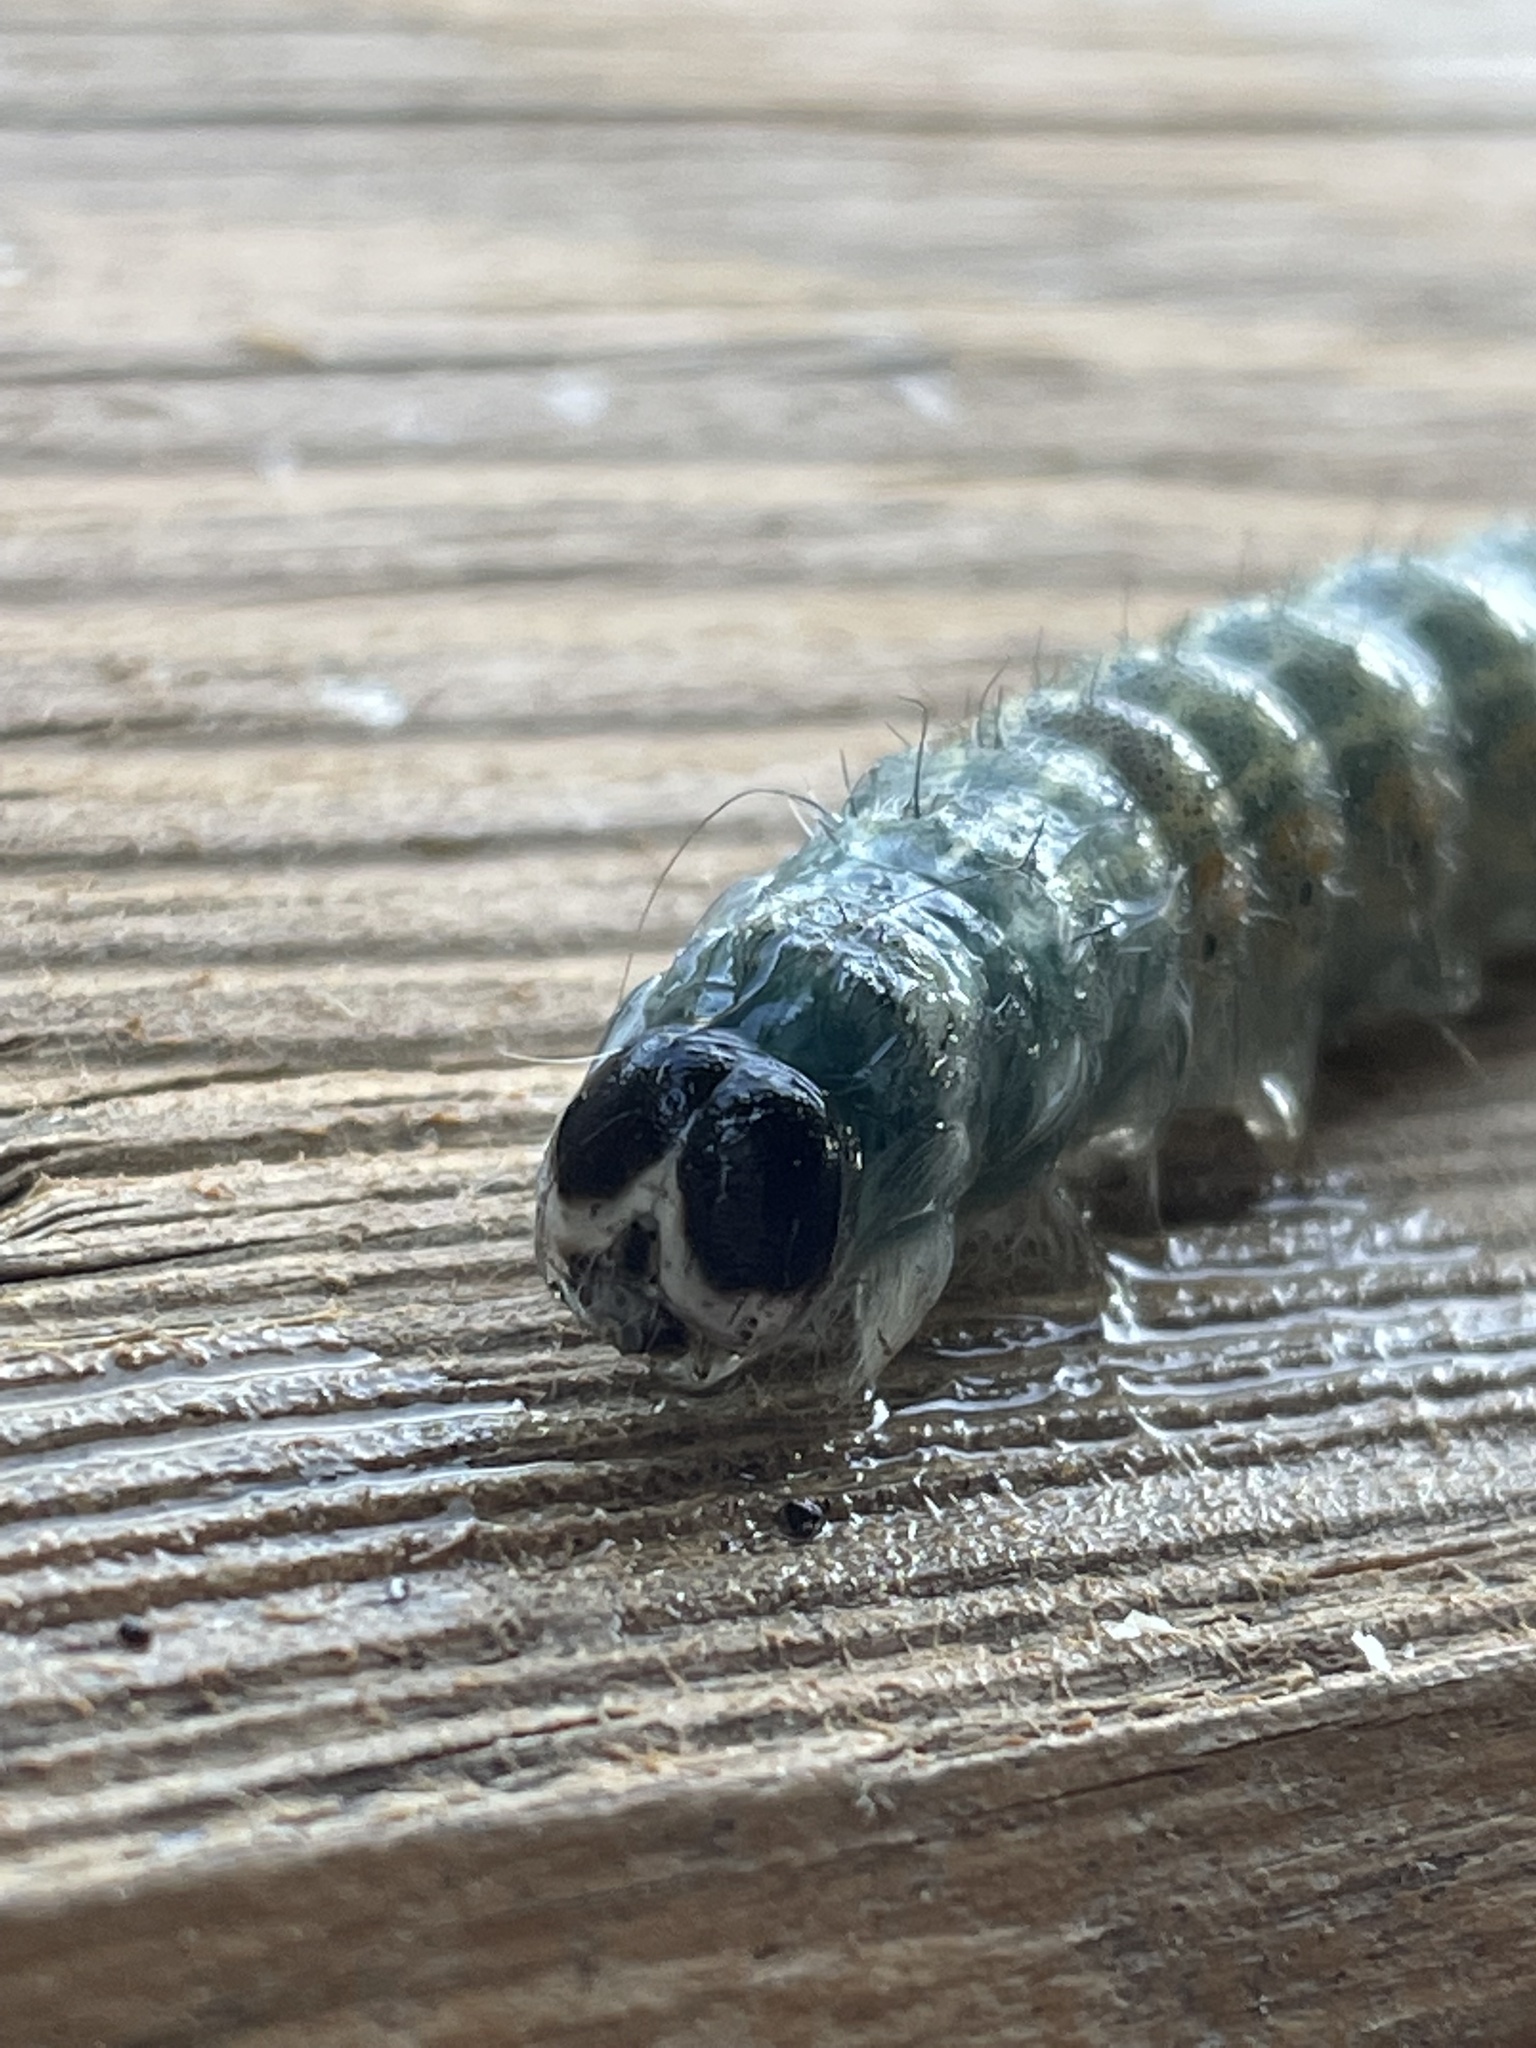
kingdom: Animalia
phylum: Arthropoda
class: Insecta
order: Lepidoptera
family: Noctuidae
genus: Acronicta
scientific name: Acronicta lobeliae
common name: Greater oak dagger
